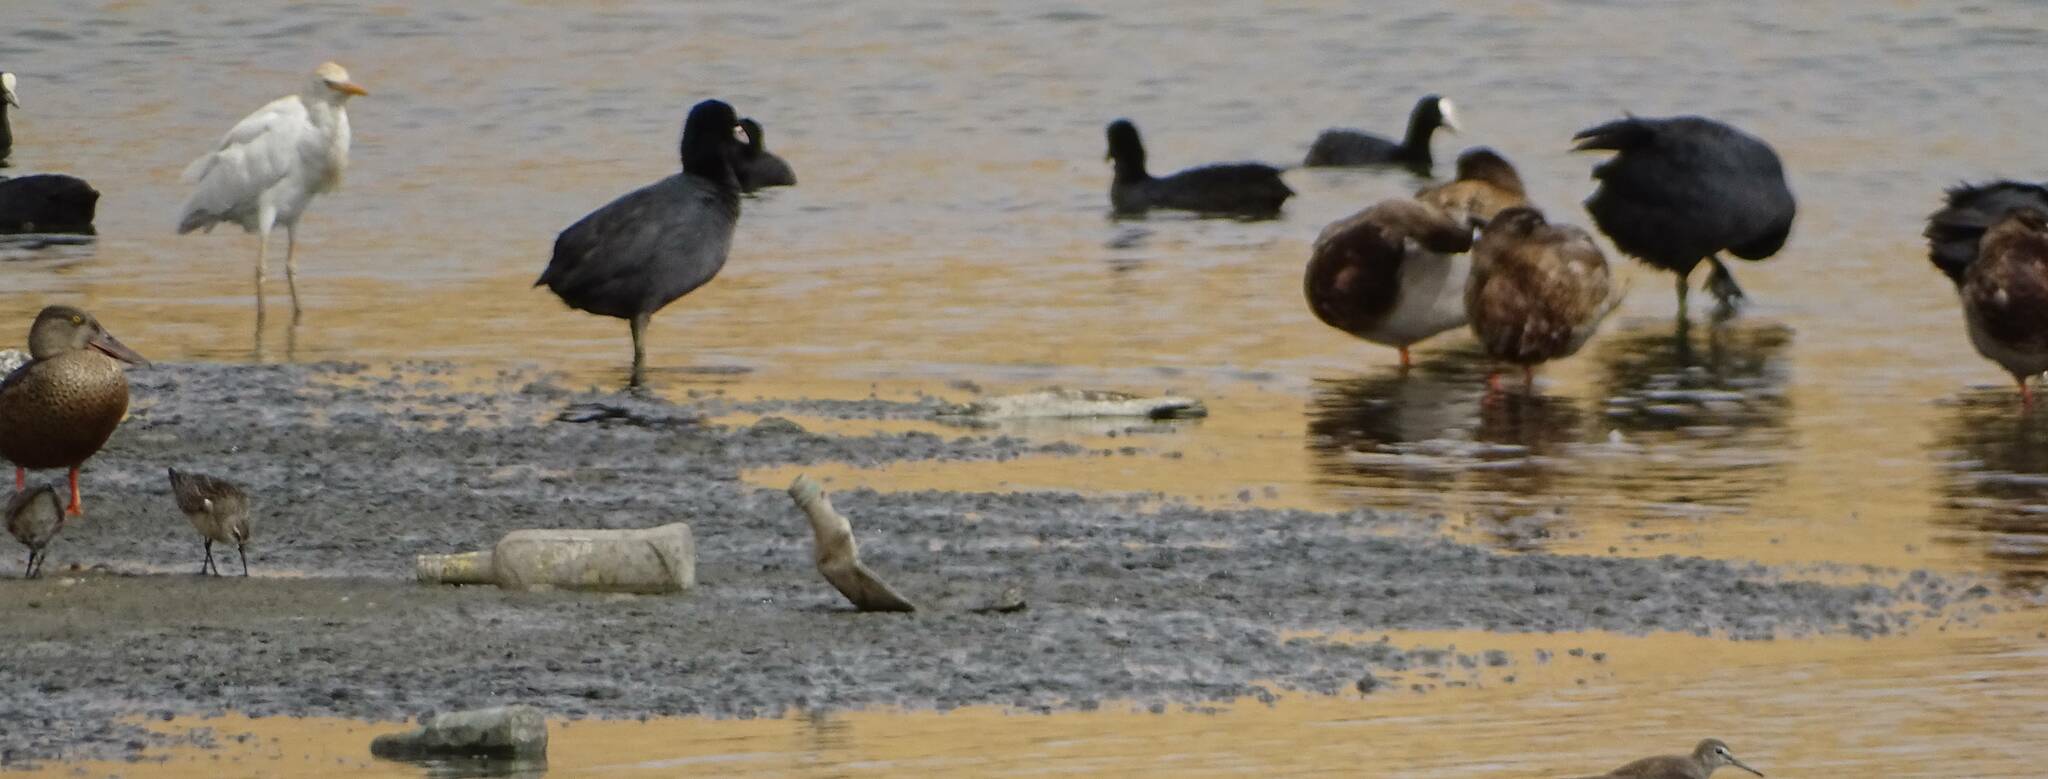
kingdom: Animalia
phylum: Chordata
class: Aves
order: Gruiformes
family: Rallidae
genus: Fulica
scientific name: Fulica atra
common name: Eurasian coot
